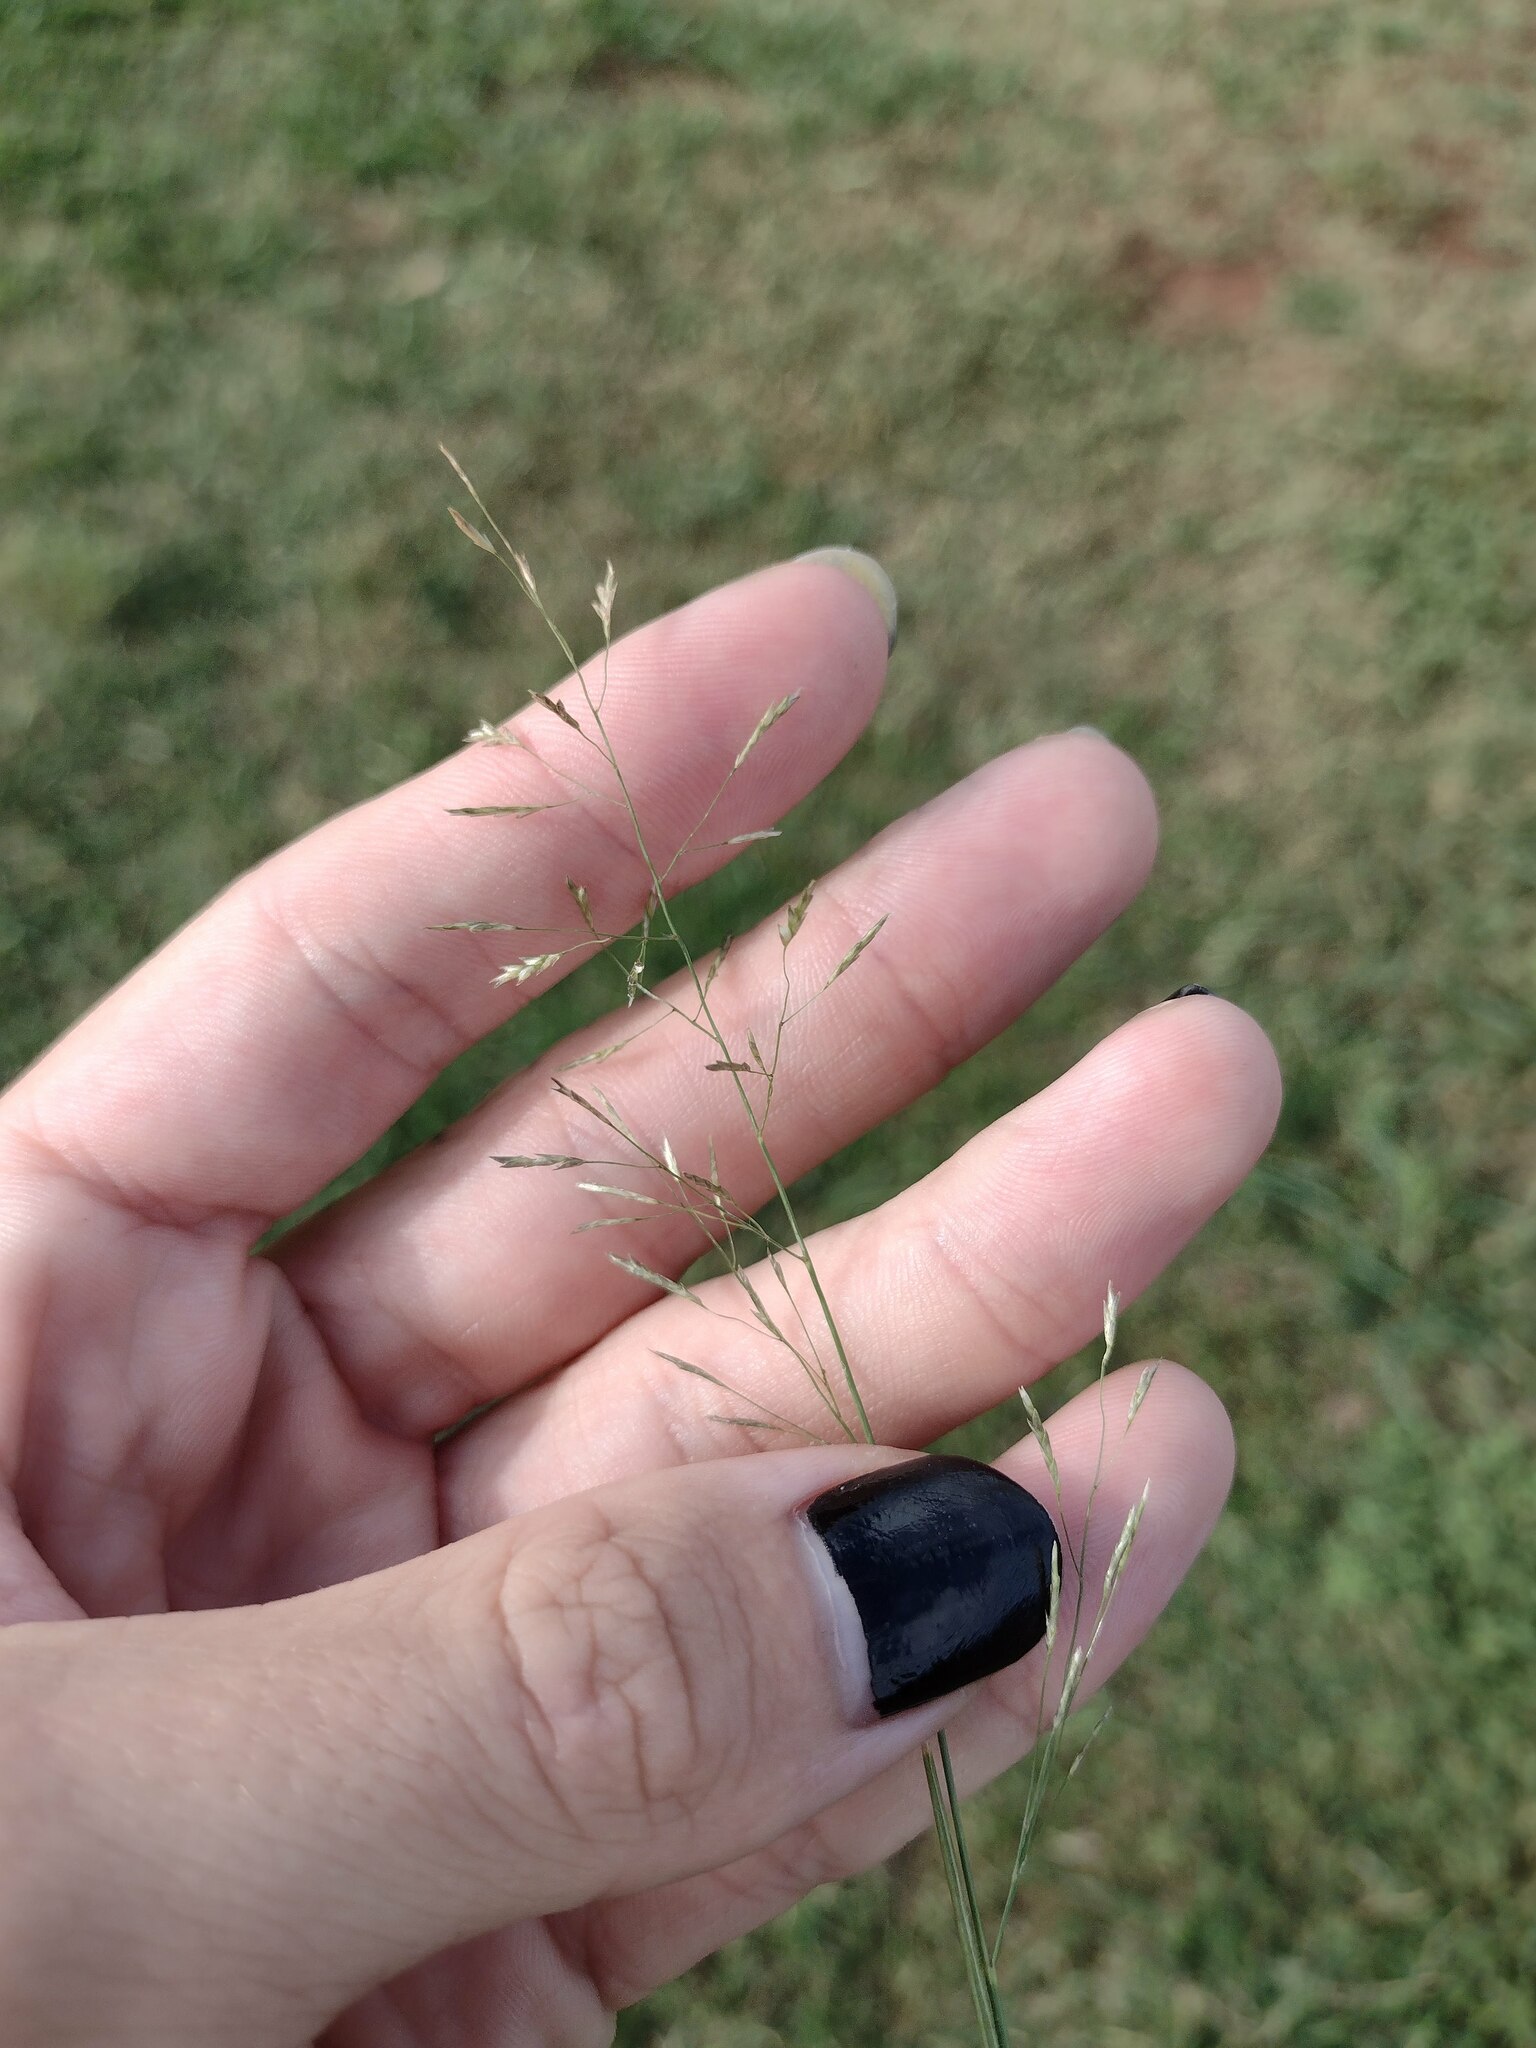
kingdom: Plantae
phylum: Tracheophyta
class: Liliopsida
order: Poales
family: Poaceae
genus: Eragrostis
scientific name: Eragrostis tenuifolia
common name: Elastic grass
